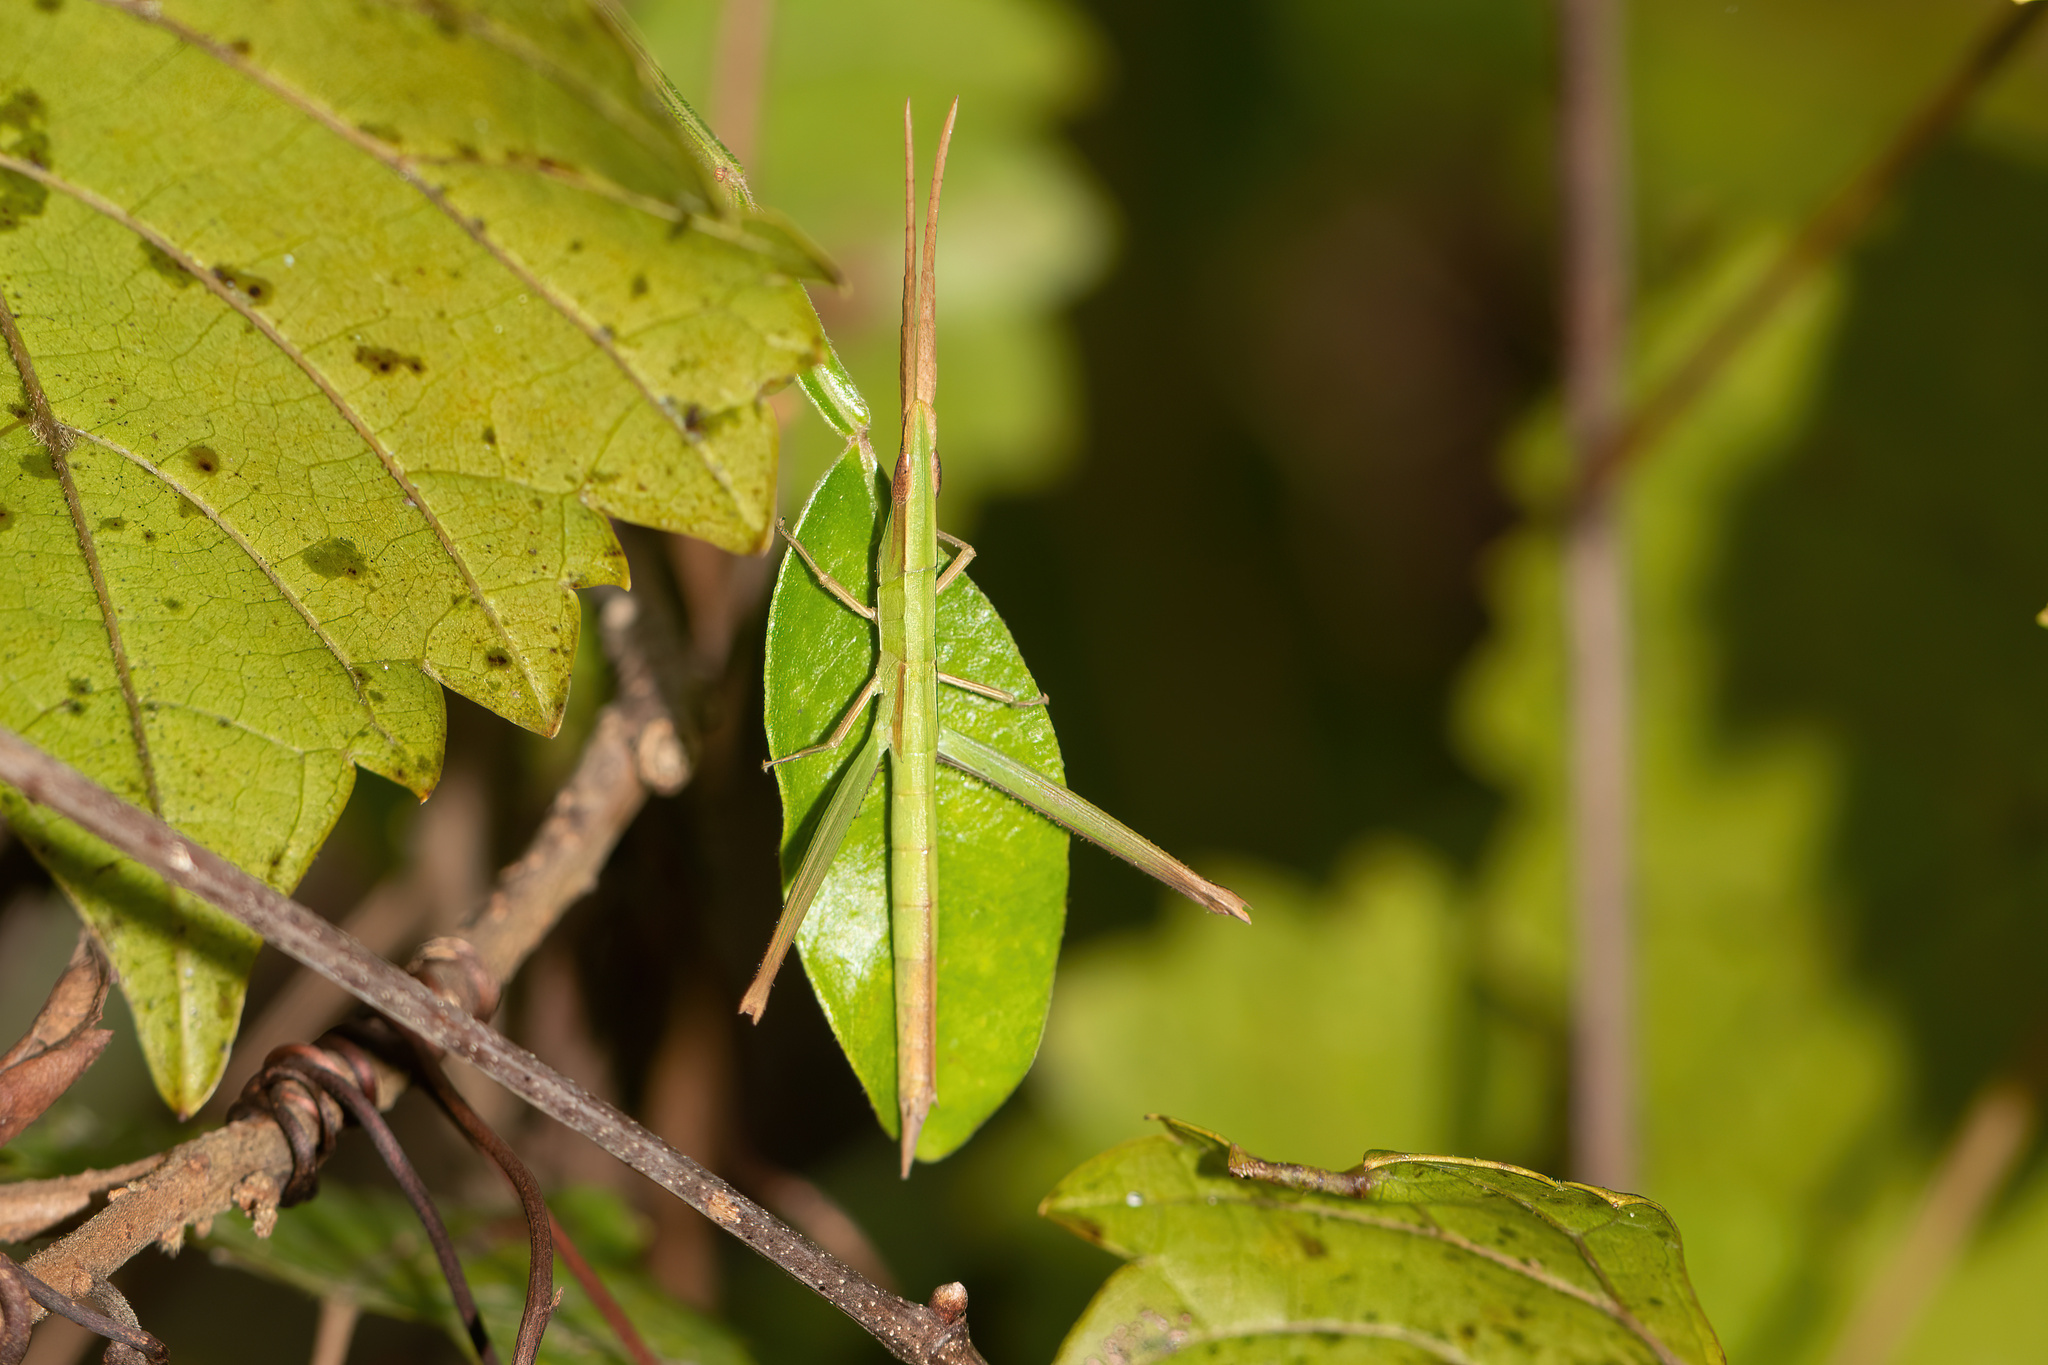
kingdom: Animalia
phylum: Arthropoda
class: Insecta
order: Orthoptera
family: Acrididae
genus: Achurum
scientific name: Achurum carinatum
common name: Long-headed toothpick grasshopper
